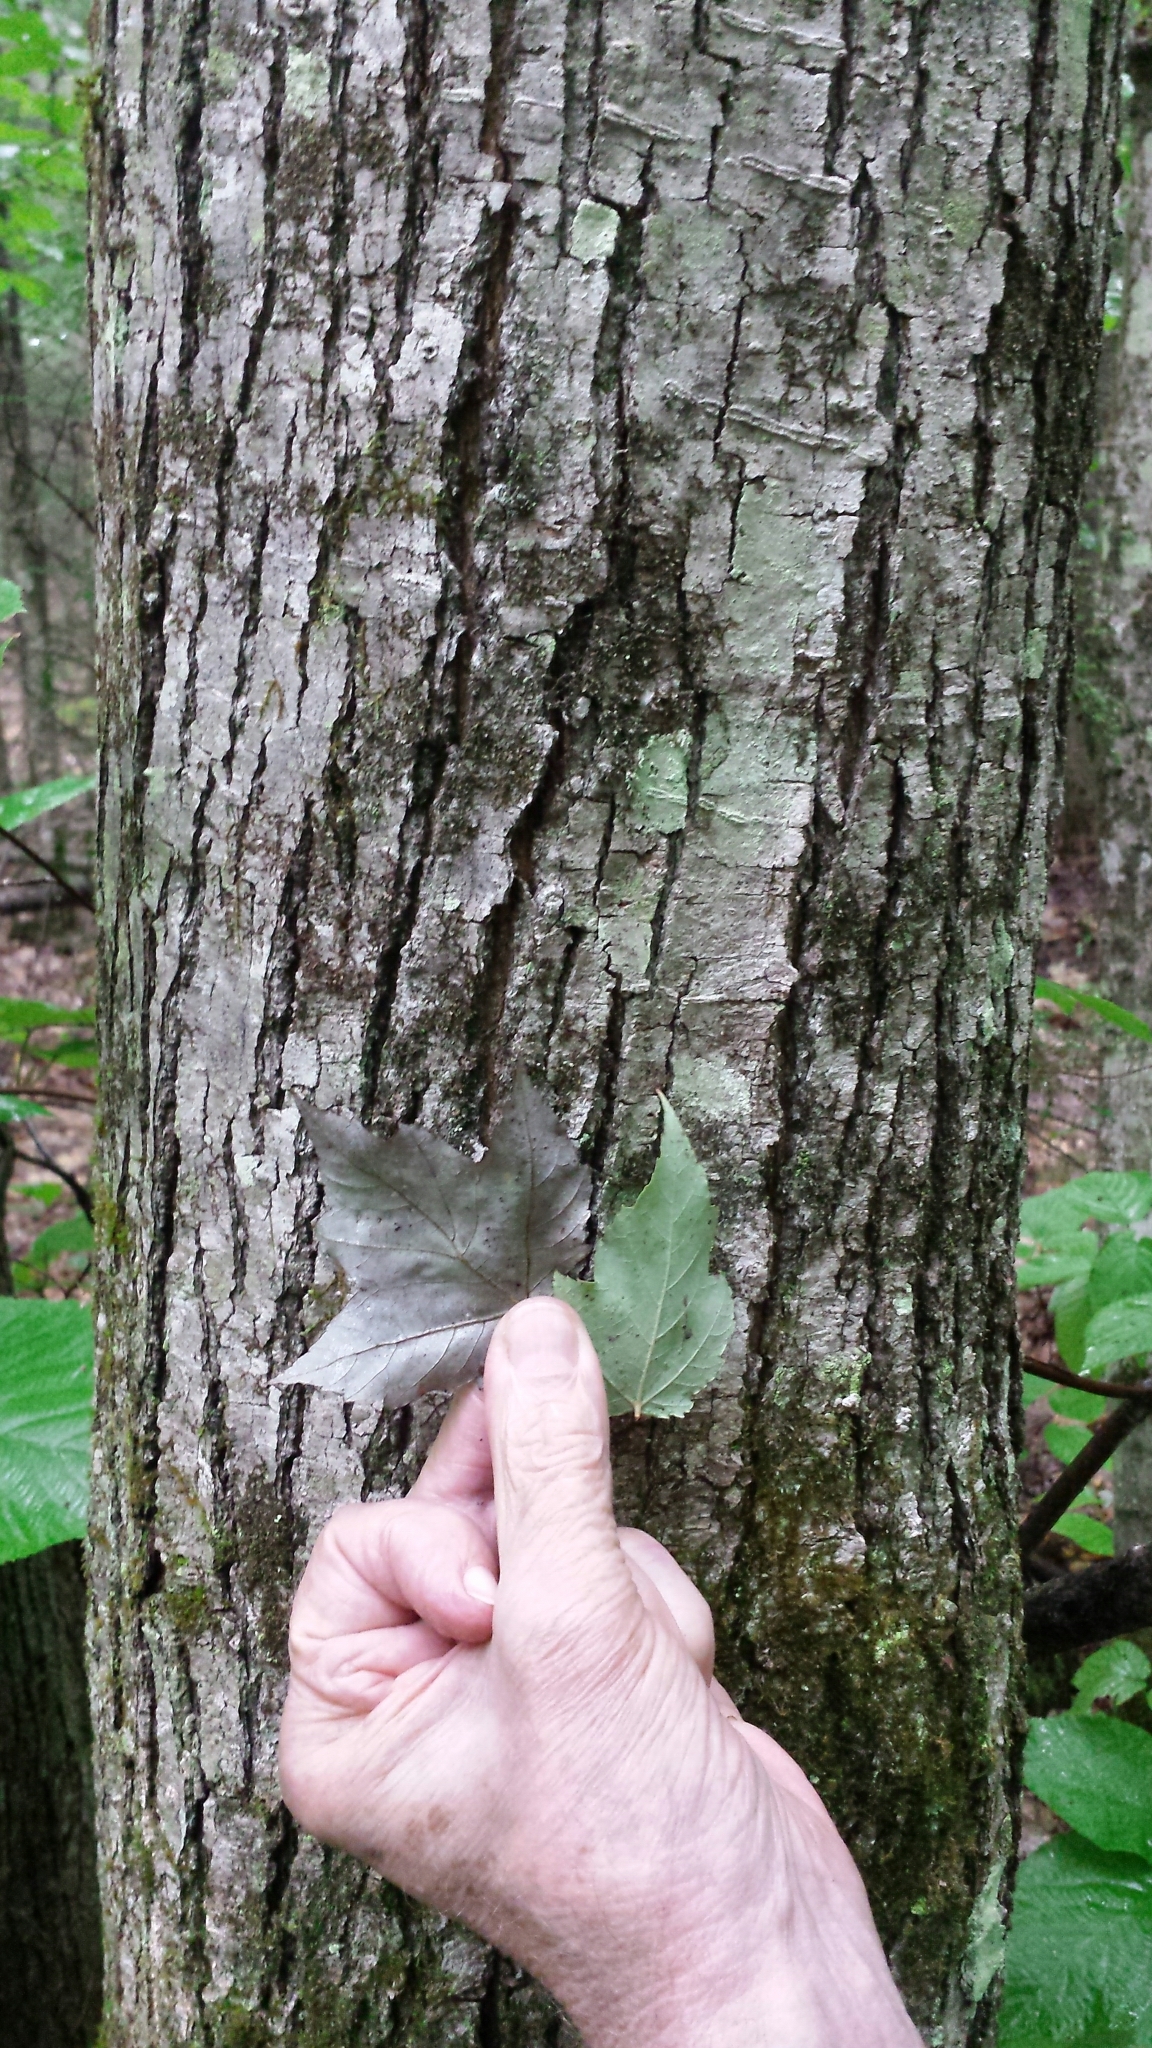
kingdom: Plantae
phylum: Tracheophyta
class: Magnoliopsida
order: Sapindales
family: Sapindaceae
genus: Acer
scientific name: Acer rubrum
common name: Red maple
